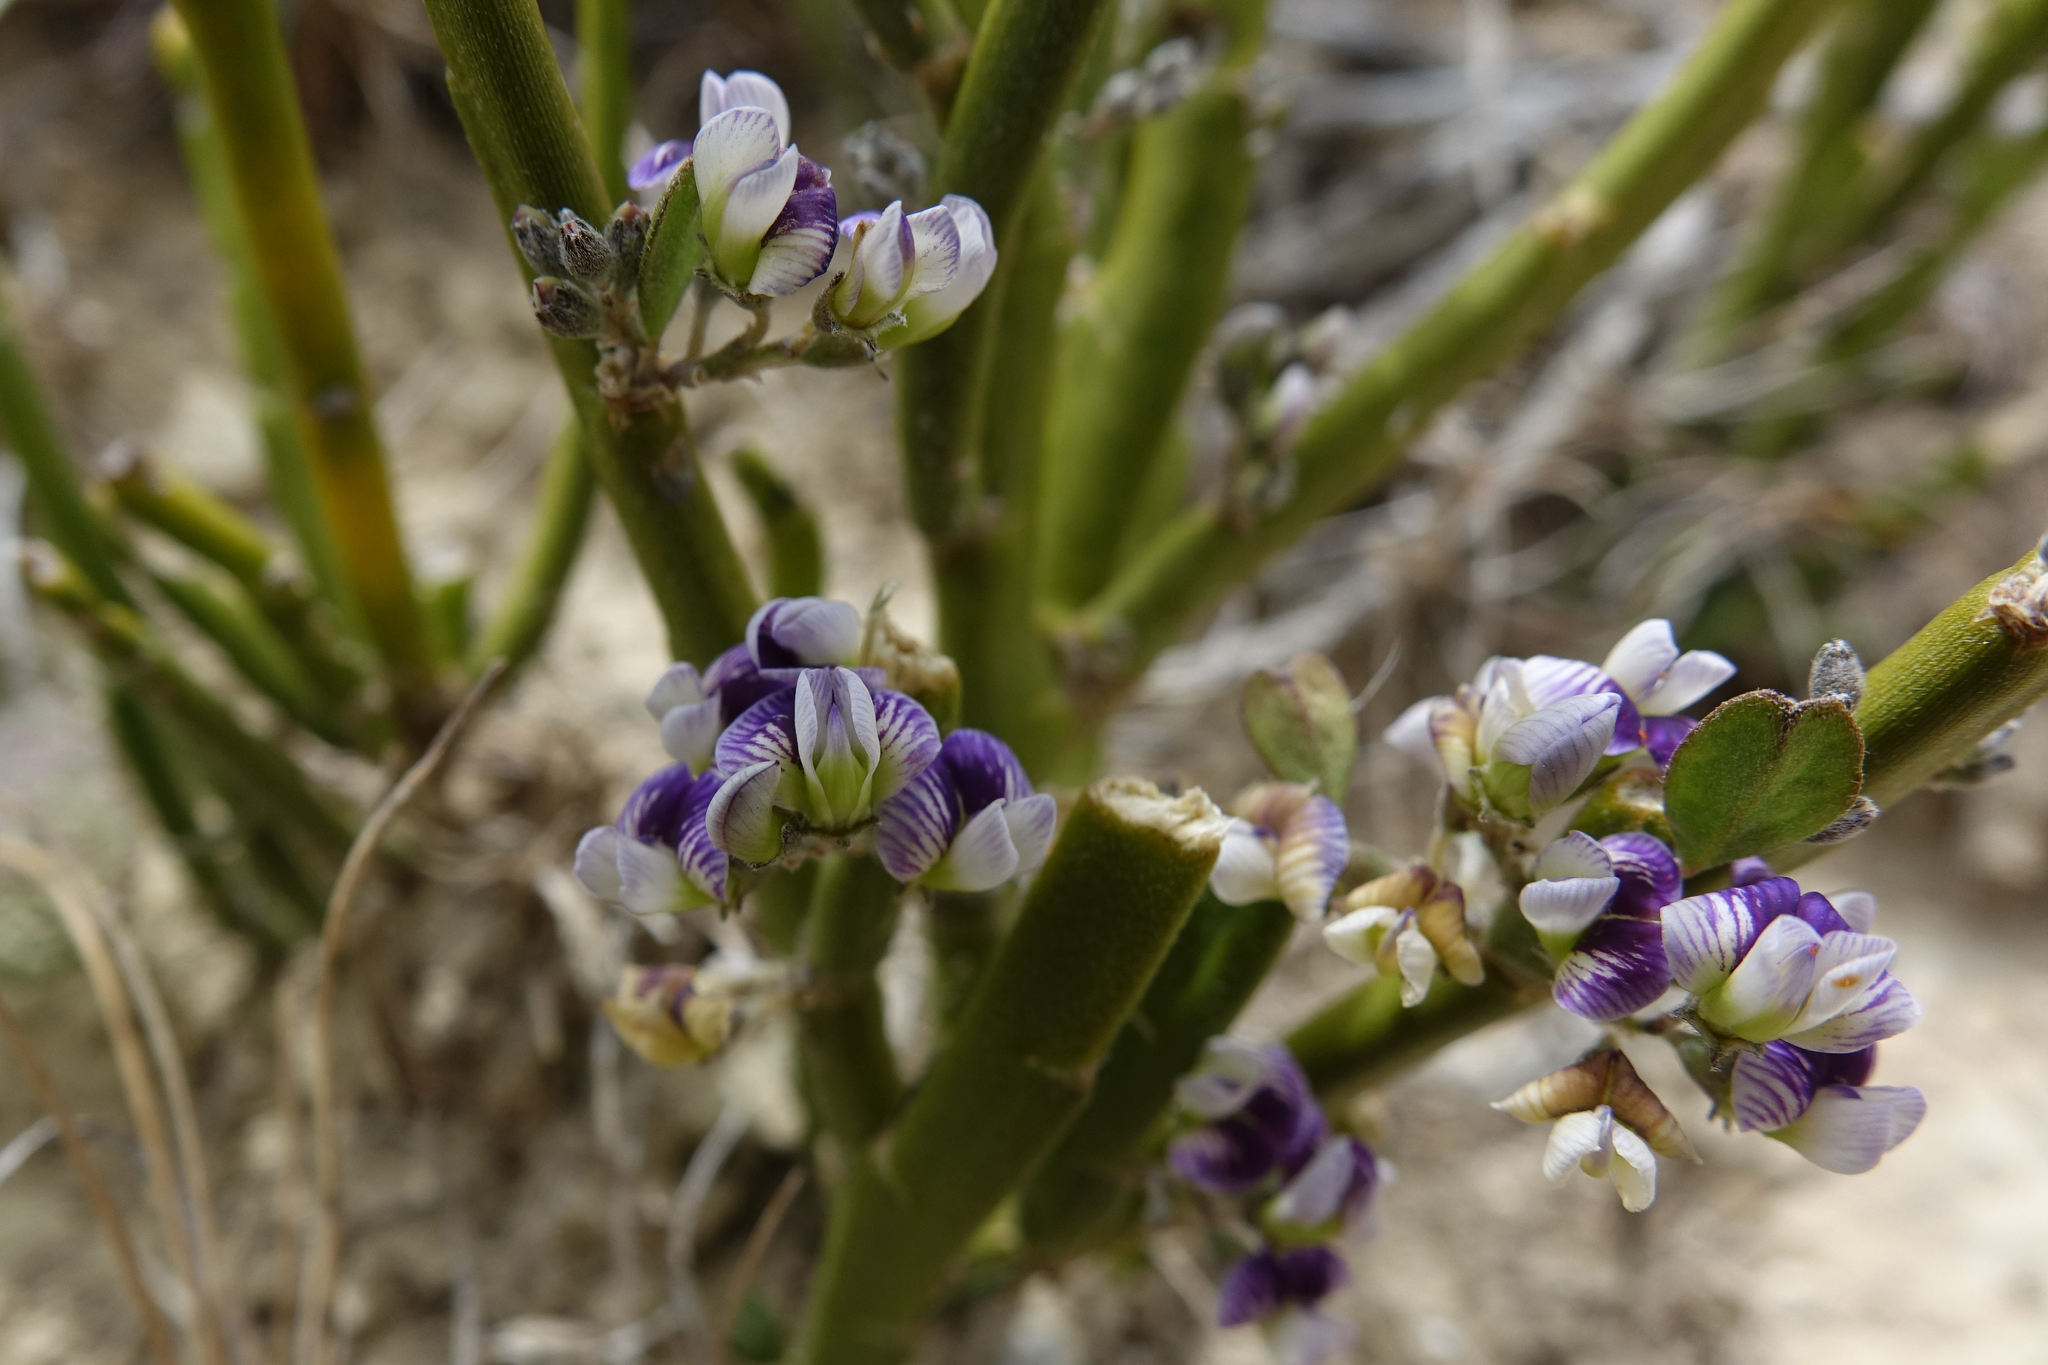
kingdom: Plantae
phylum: Tracheophyta
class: Magnoliopsida
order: Fabales
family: Fabaceae
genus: Carmichaelia
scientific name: Carmichaelia hollowayi
